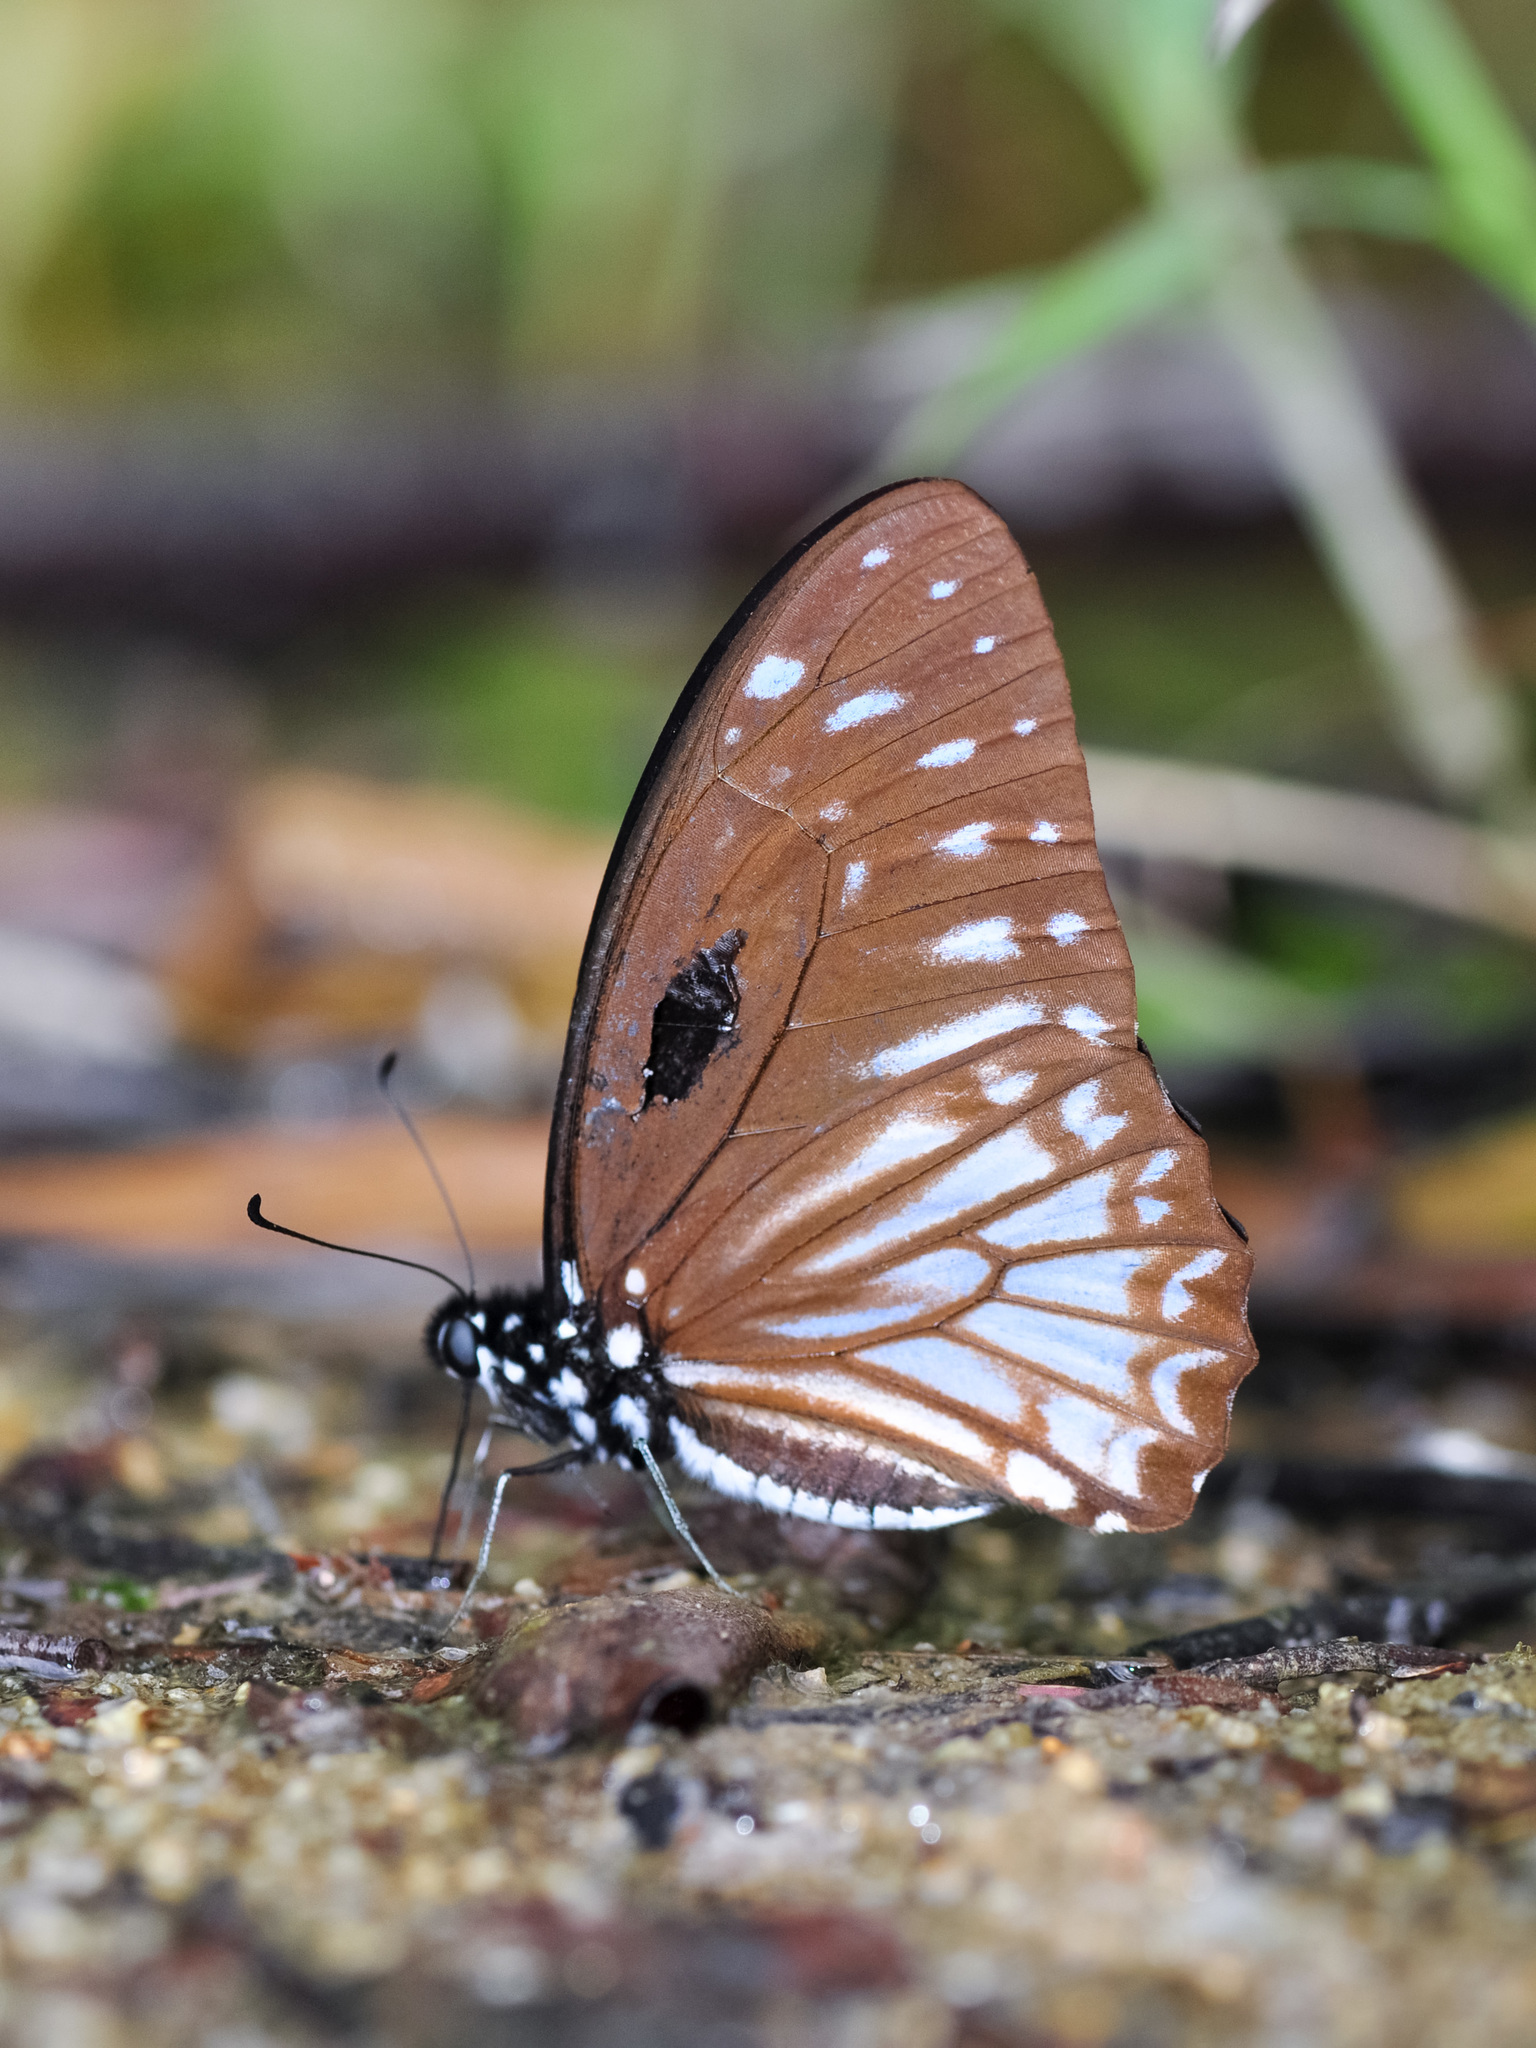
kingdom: Animalia
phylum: Arthropoda
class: Insecta
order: Lepidoptera
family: Papilionidae
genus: Graphium
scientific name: Graphium ramaceus
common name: Pendlebury's zebra
